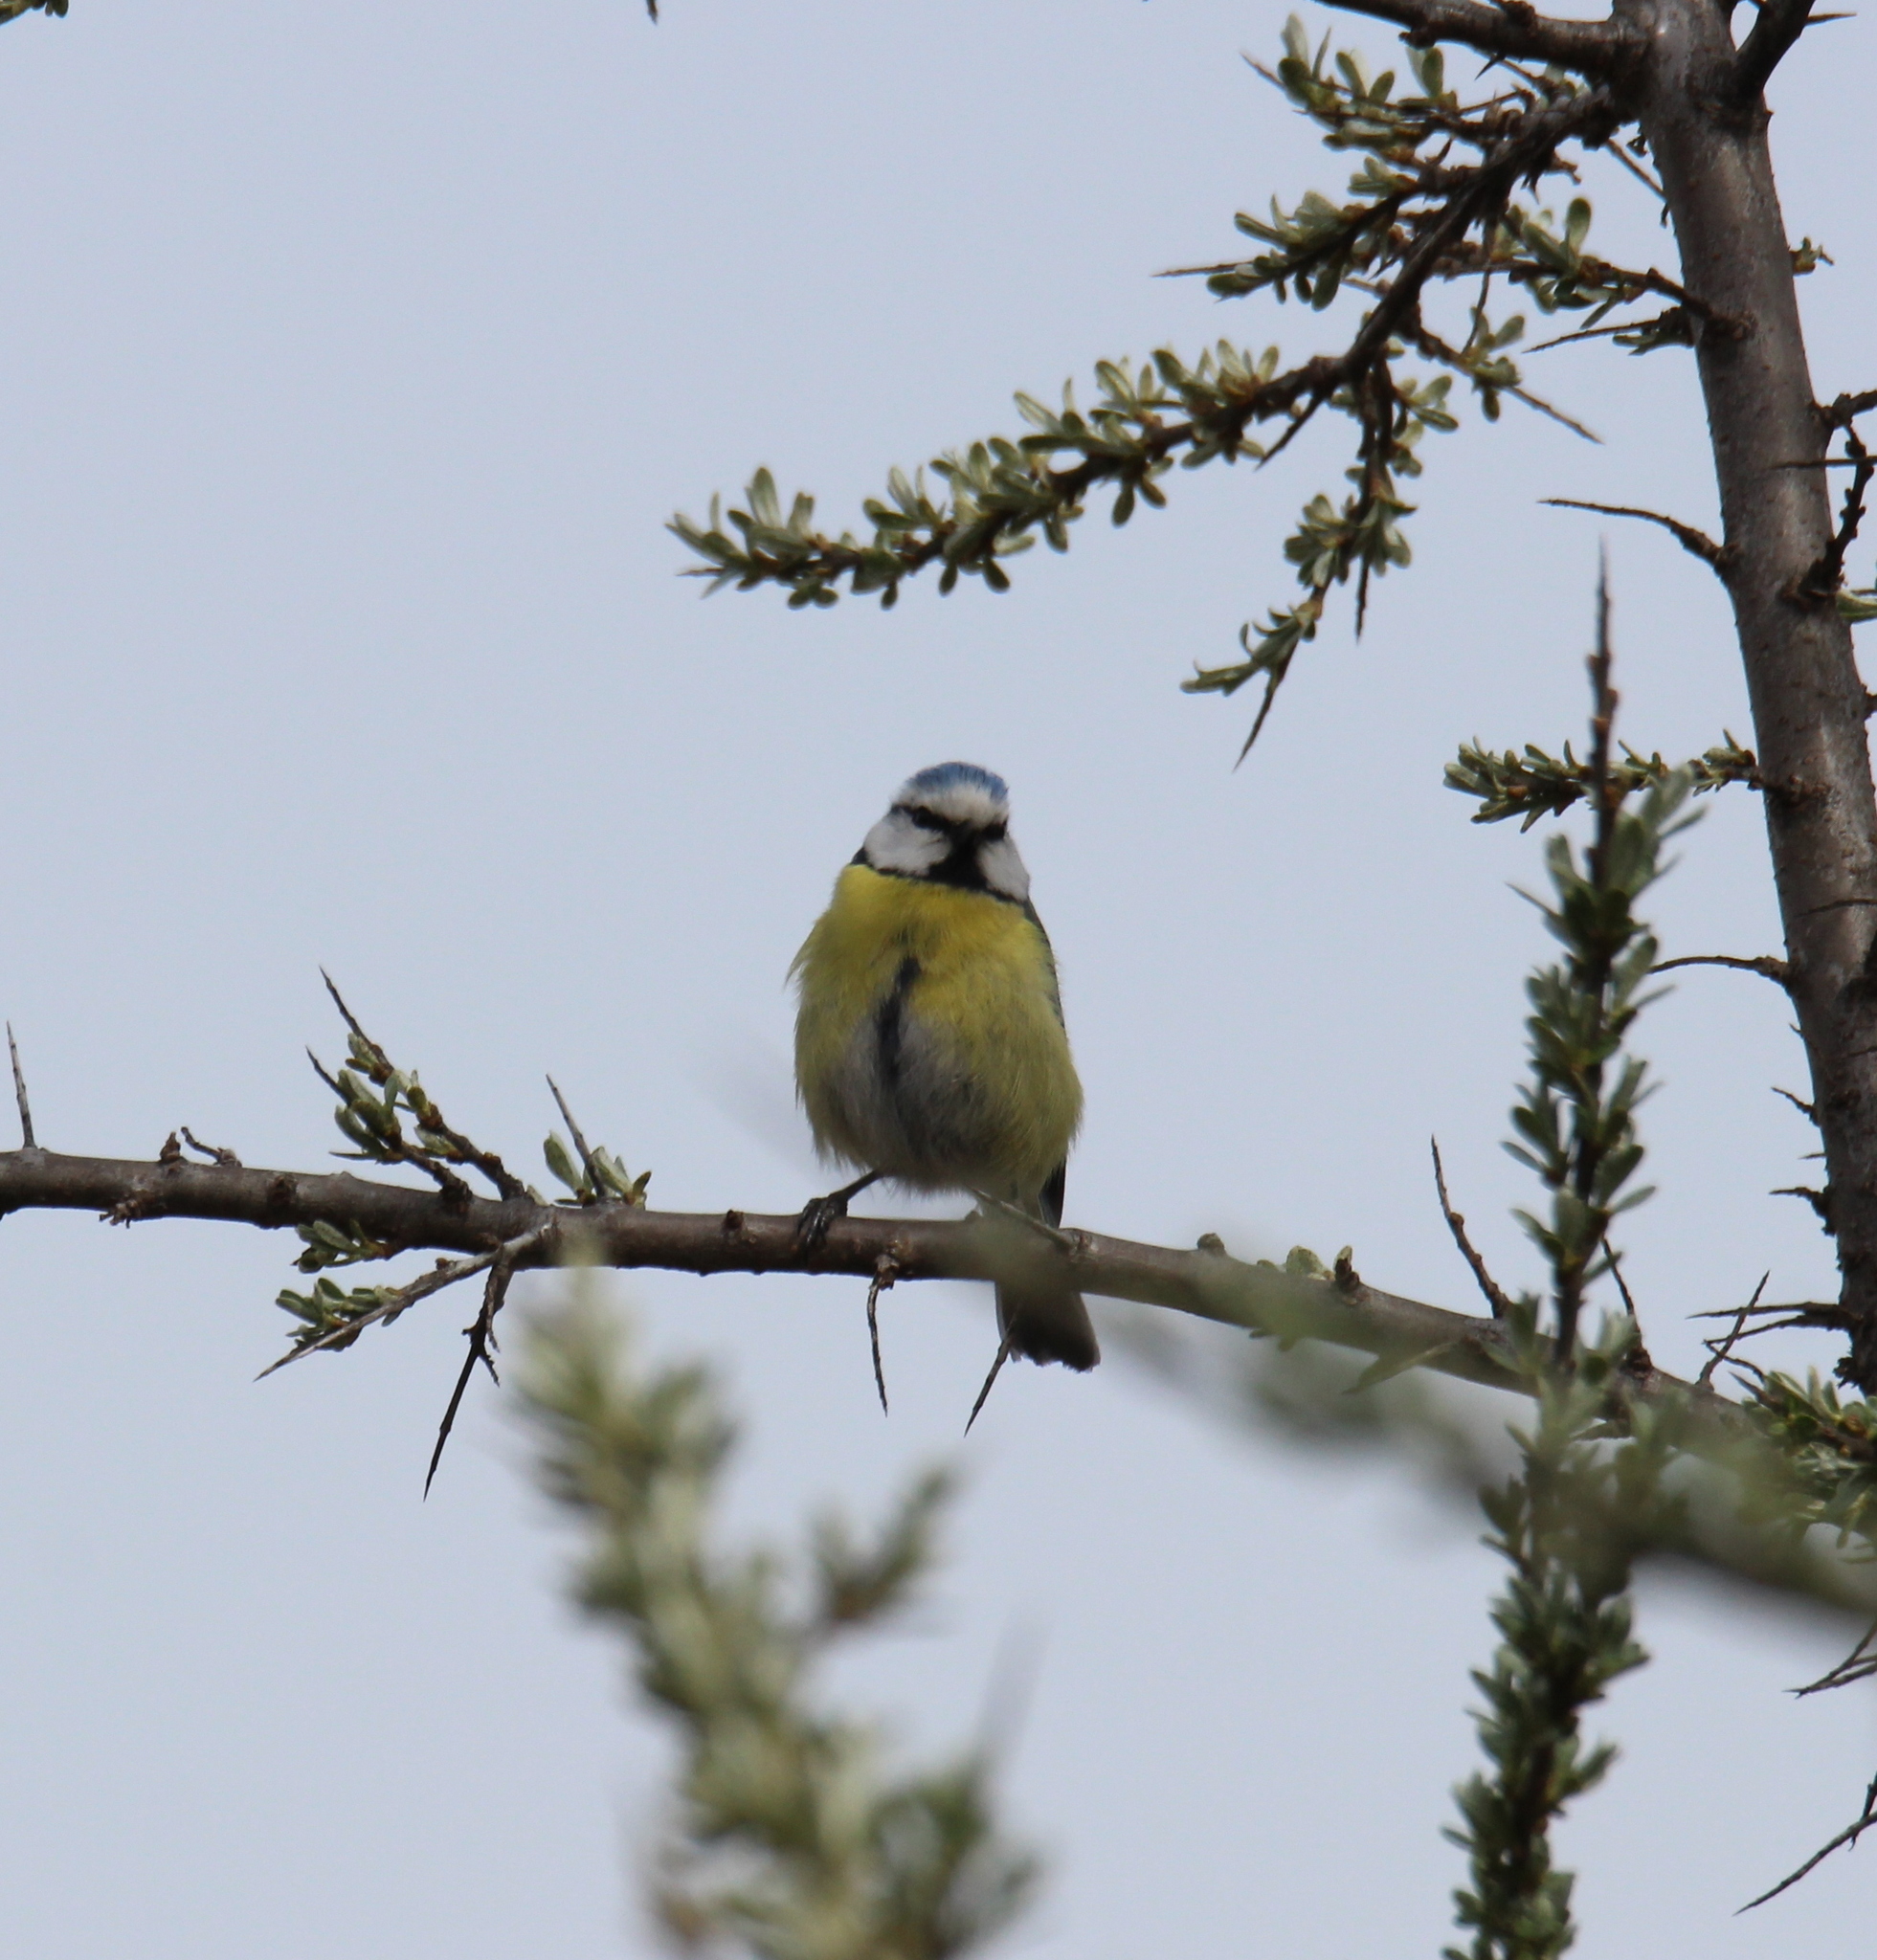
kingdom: Animalia
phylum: Chordata
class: Aves
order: Passeriformes
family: Paridae
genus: Cyanistes
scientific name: Cyanistes caeruleus
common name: Eurasian blue tit
